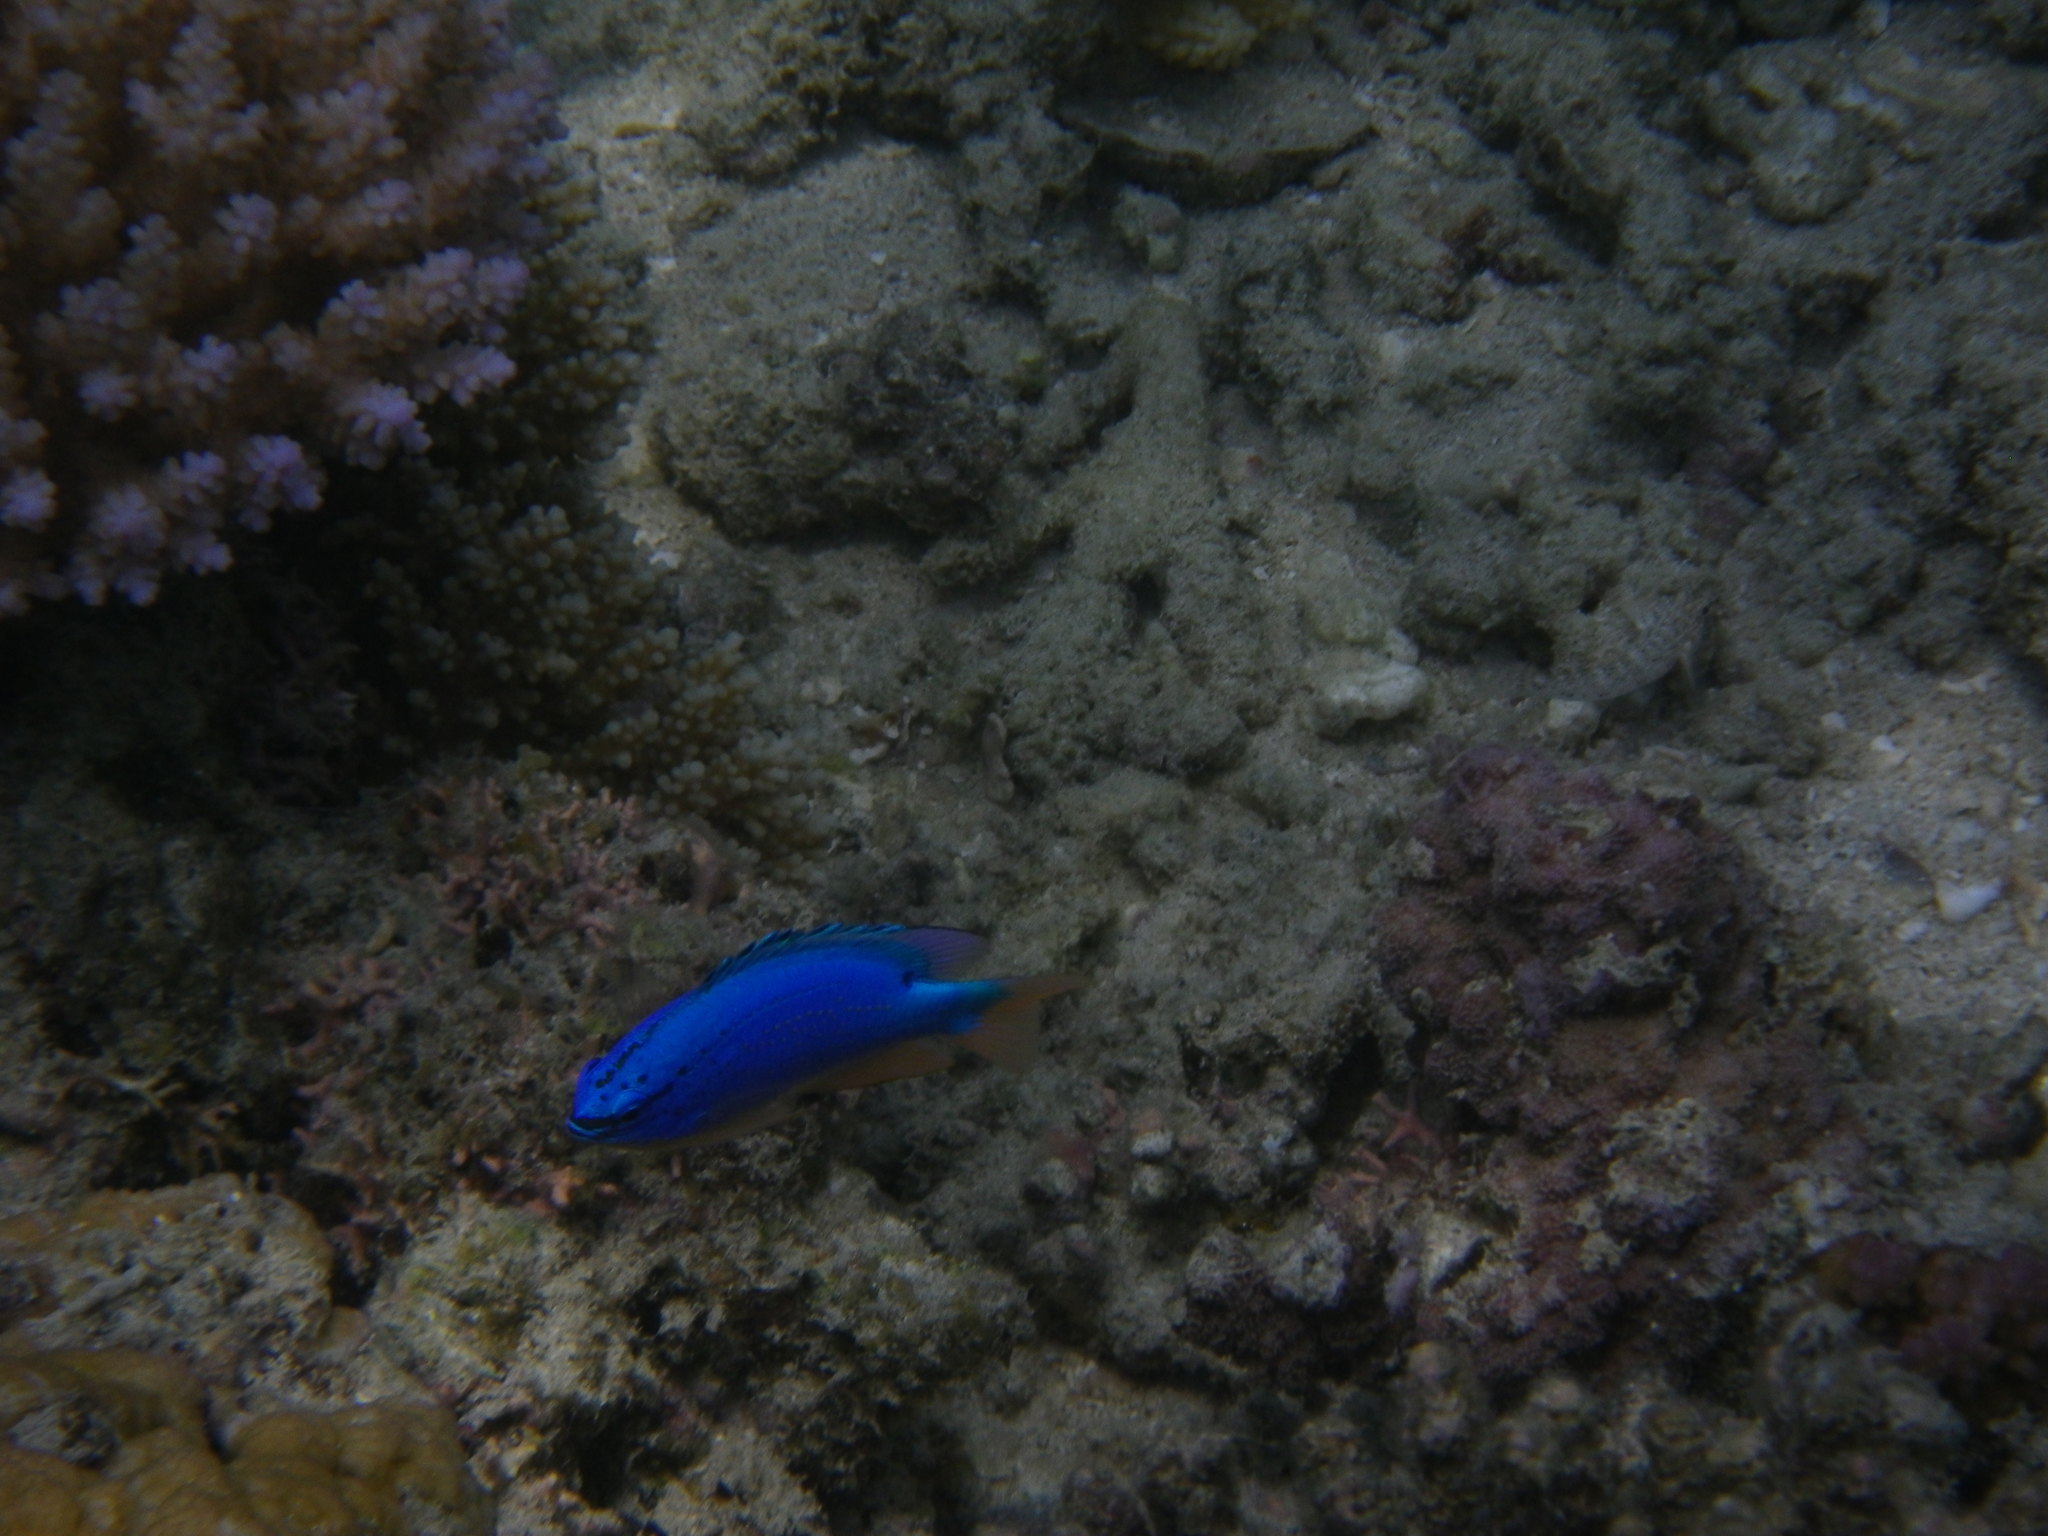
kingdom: Animalia
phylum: Chordata
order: Perciformes
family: Pomacentridae
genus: Chrysiptera
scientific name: Chrysiptera taupou
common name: Fiji damsel
